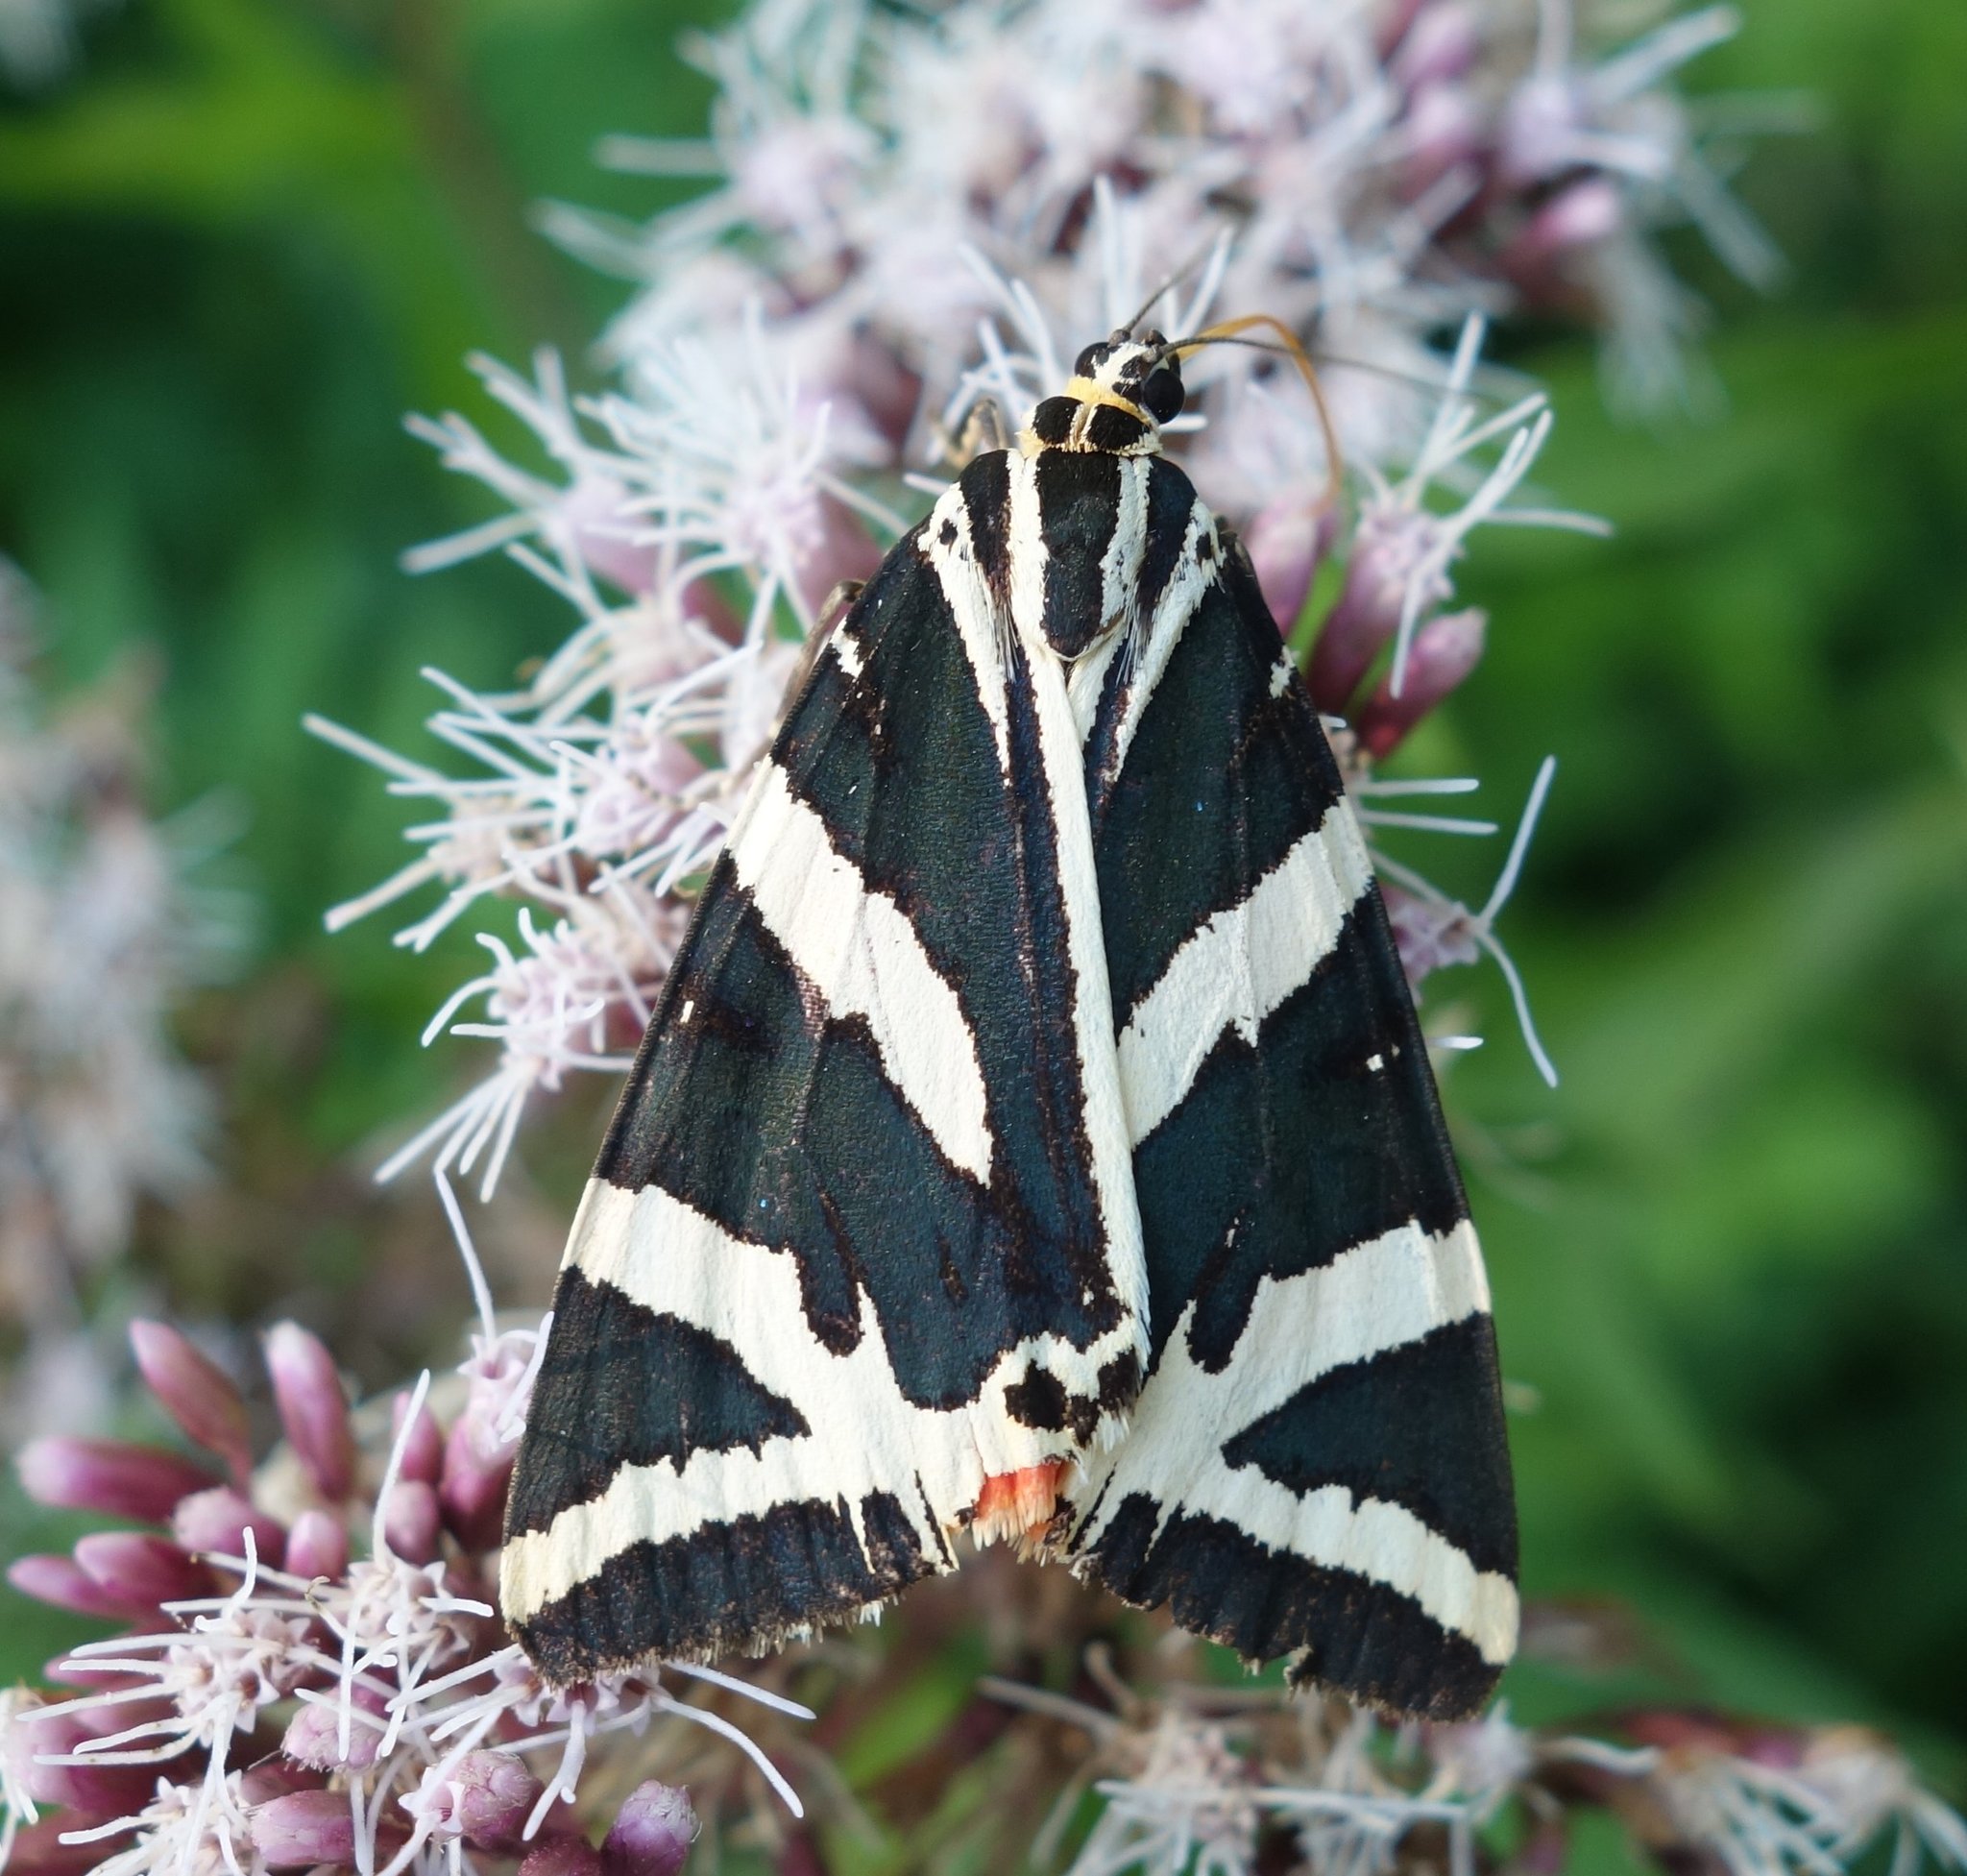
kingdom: Animalia
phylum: Arthropoda
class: Insecta
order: Lepidoptera
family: Erebidae
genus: Euplagia
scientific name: Euplagia quadripunctaria
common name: Jersey tiger
